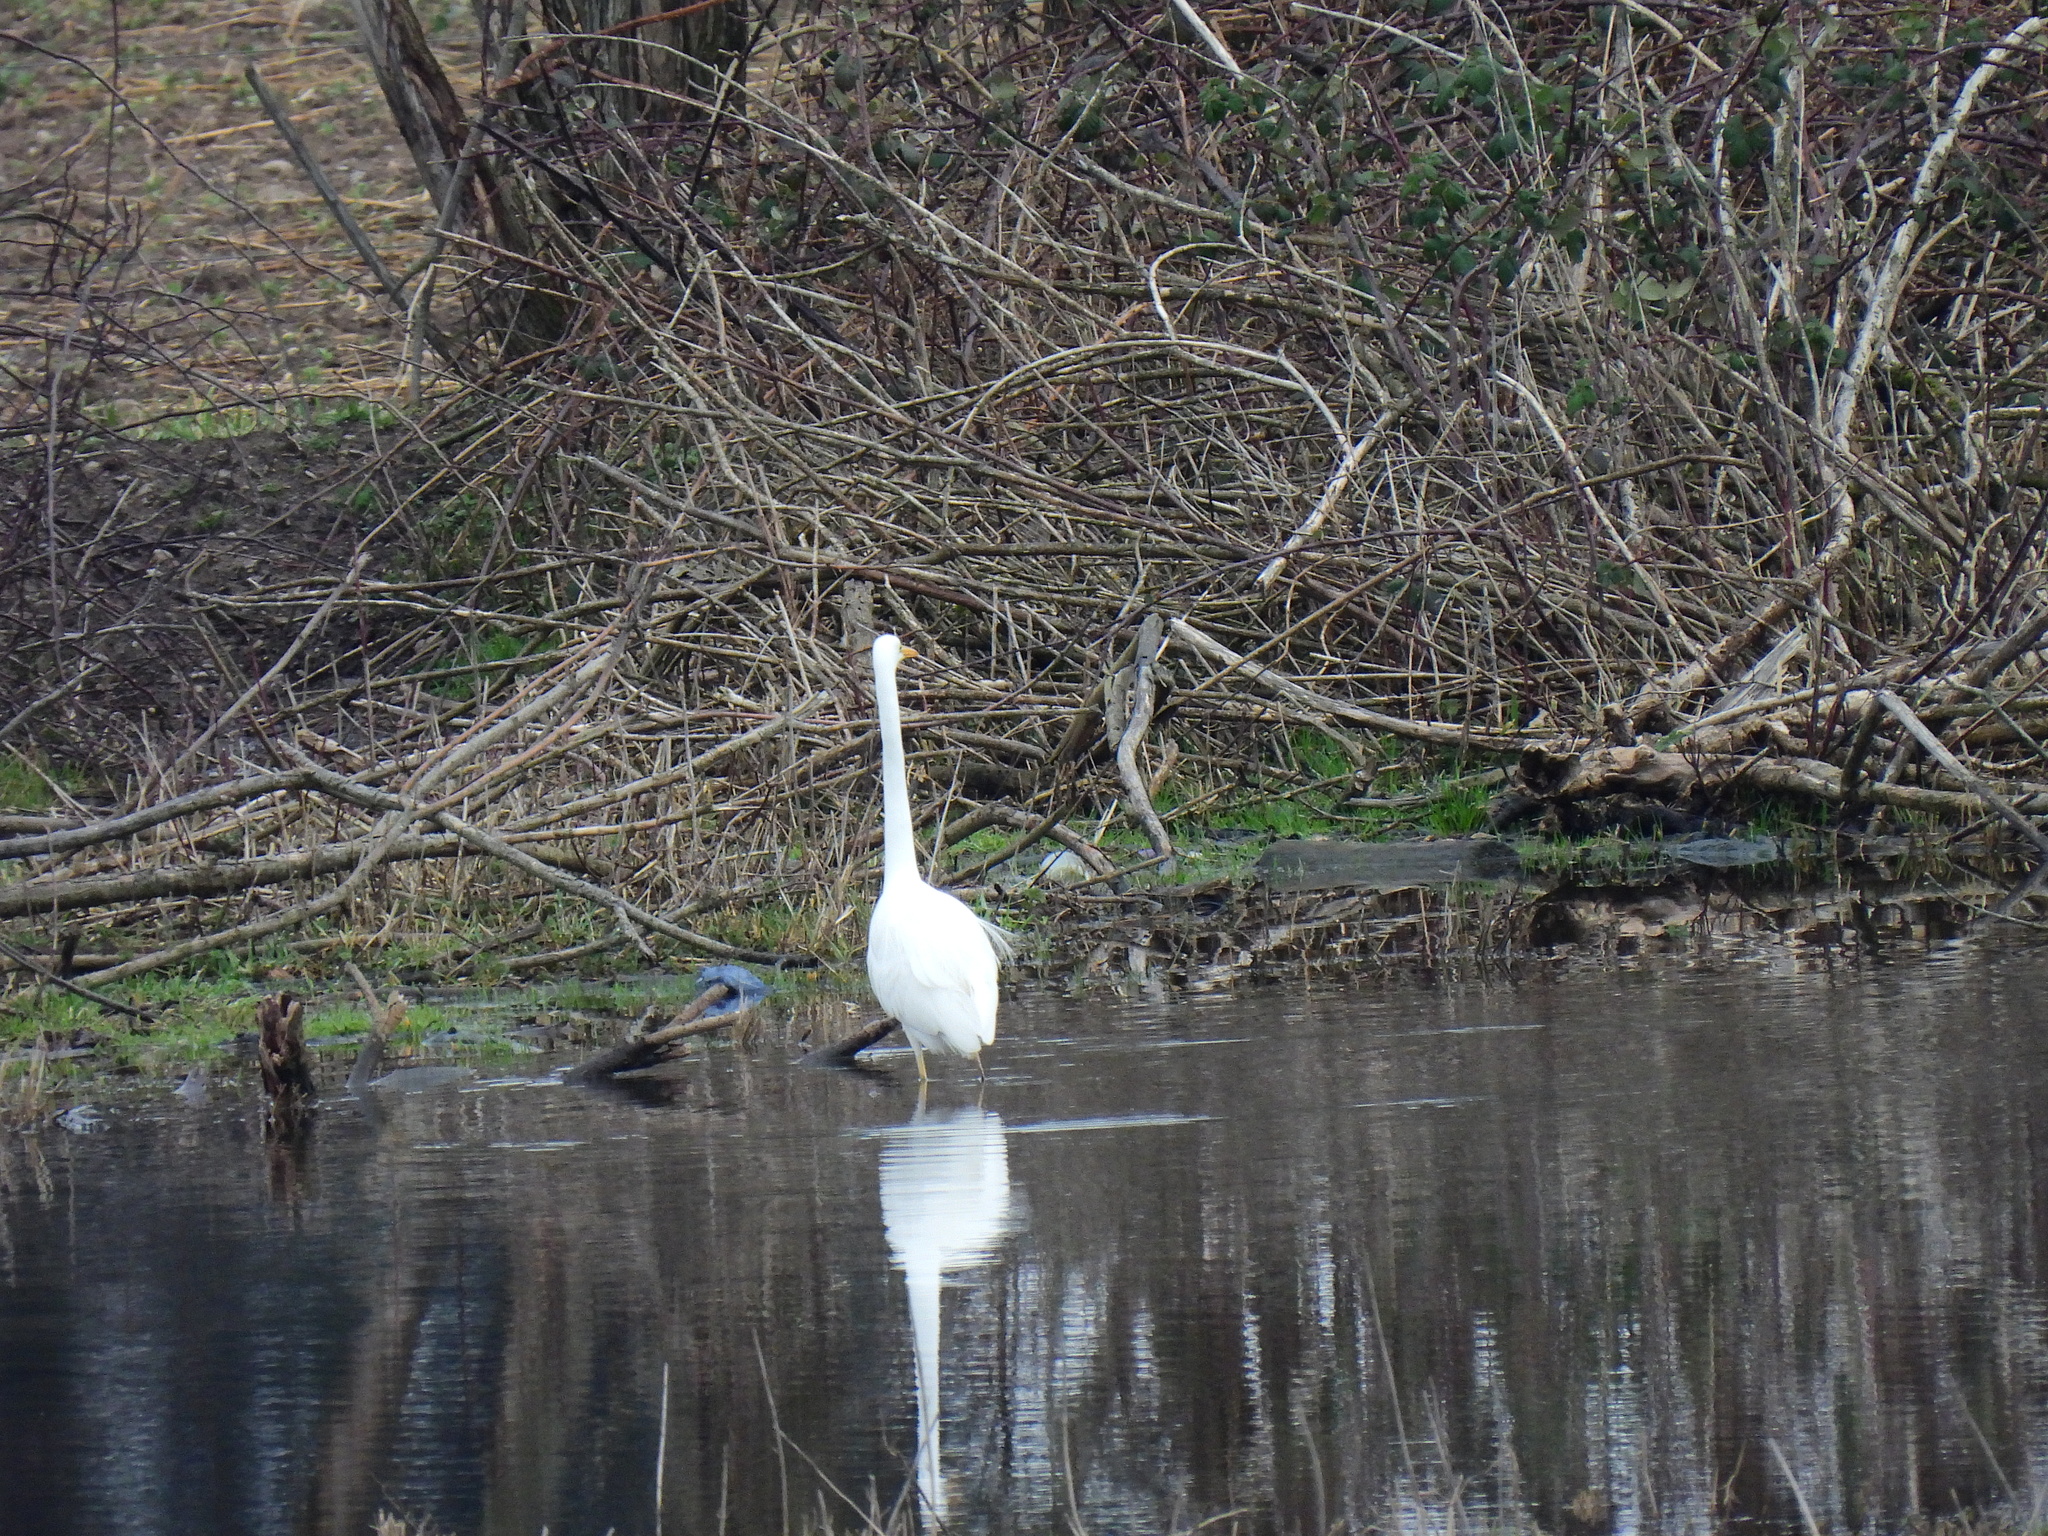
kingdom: Animalia
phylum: Chordata
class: Aves
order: Pelecaniformes
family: Ardeidae
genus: Ardea
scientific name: Ardea alba
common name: Great egret
